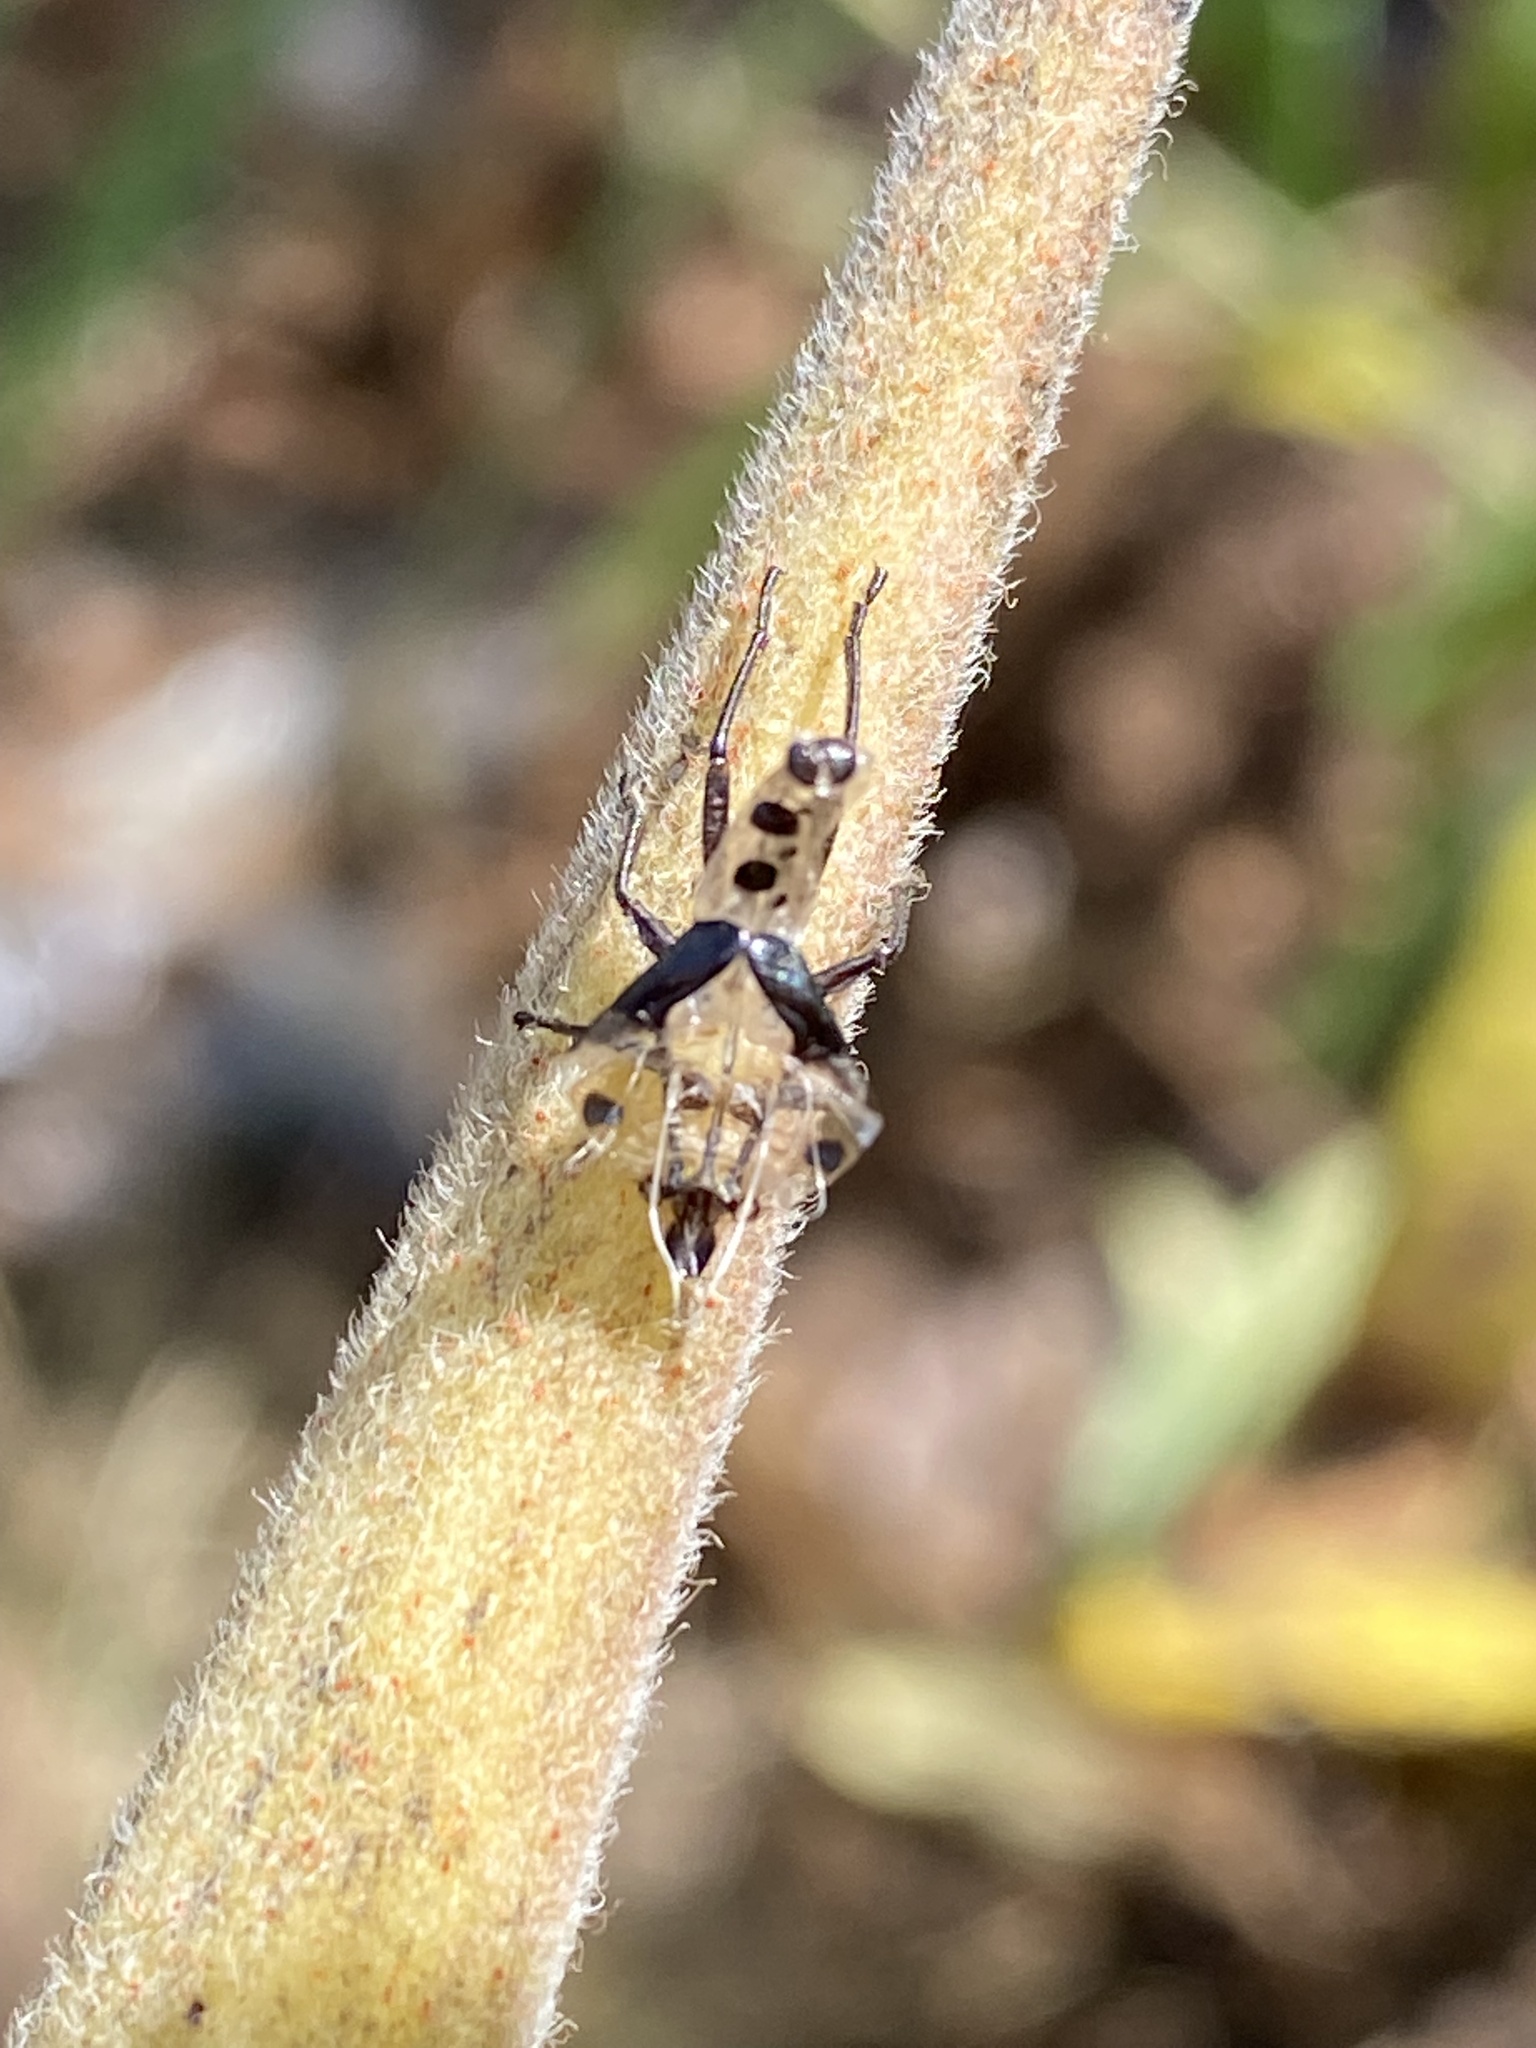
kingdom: Animalia
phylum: Arthropoda
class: Insecta
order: Hemiptera
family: Lygaeidae
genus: Oncopeltus
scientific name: Oncopeltus fasciatus
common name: Large milkweed bug
